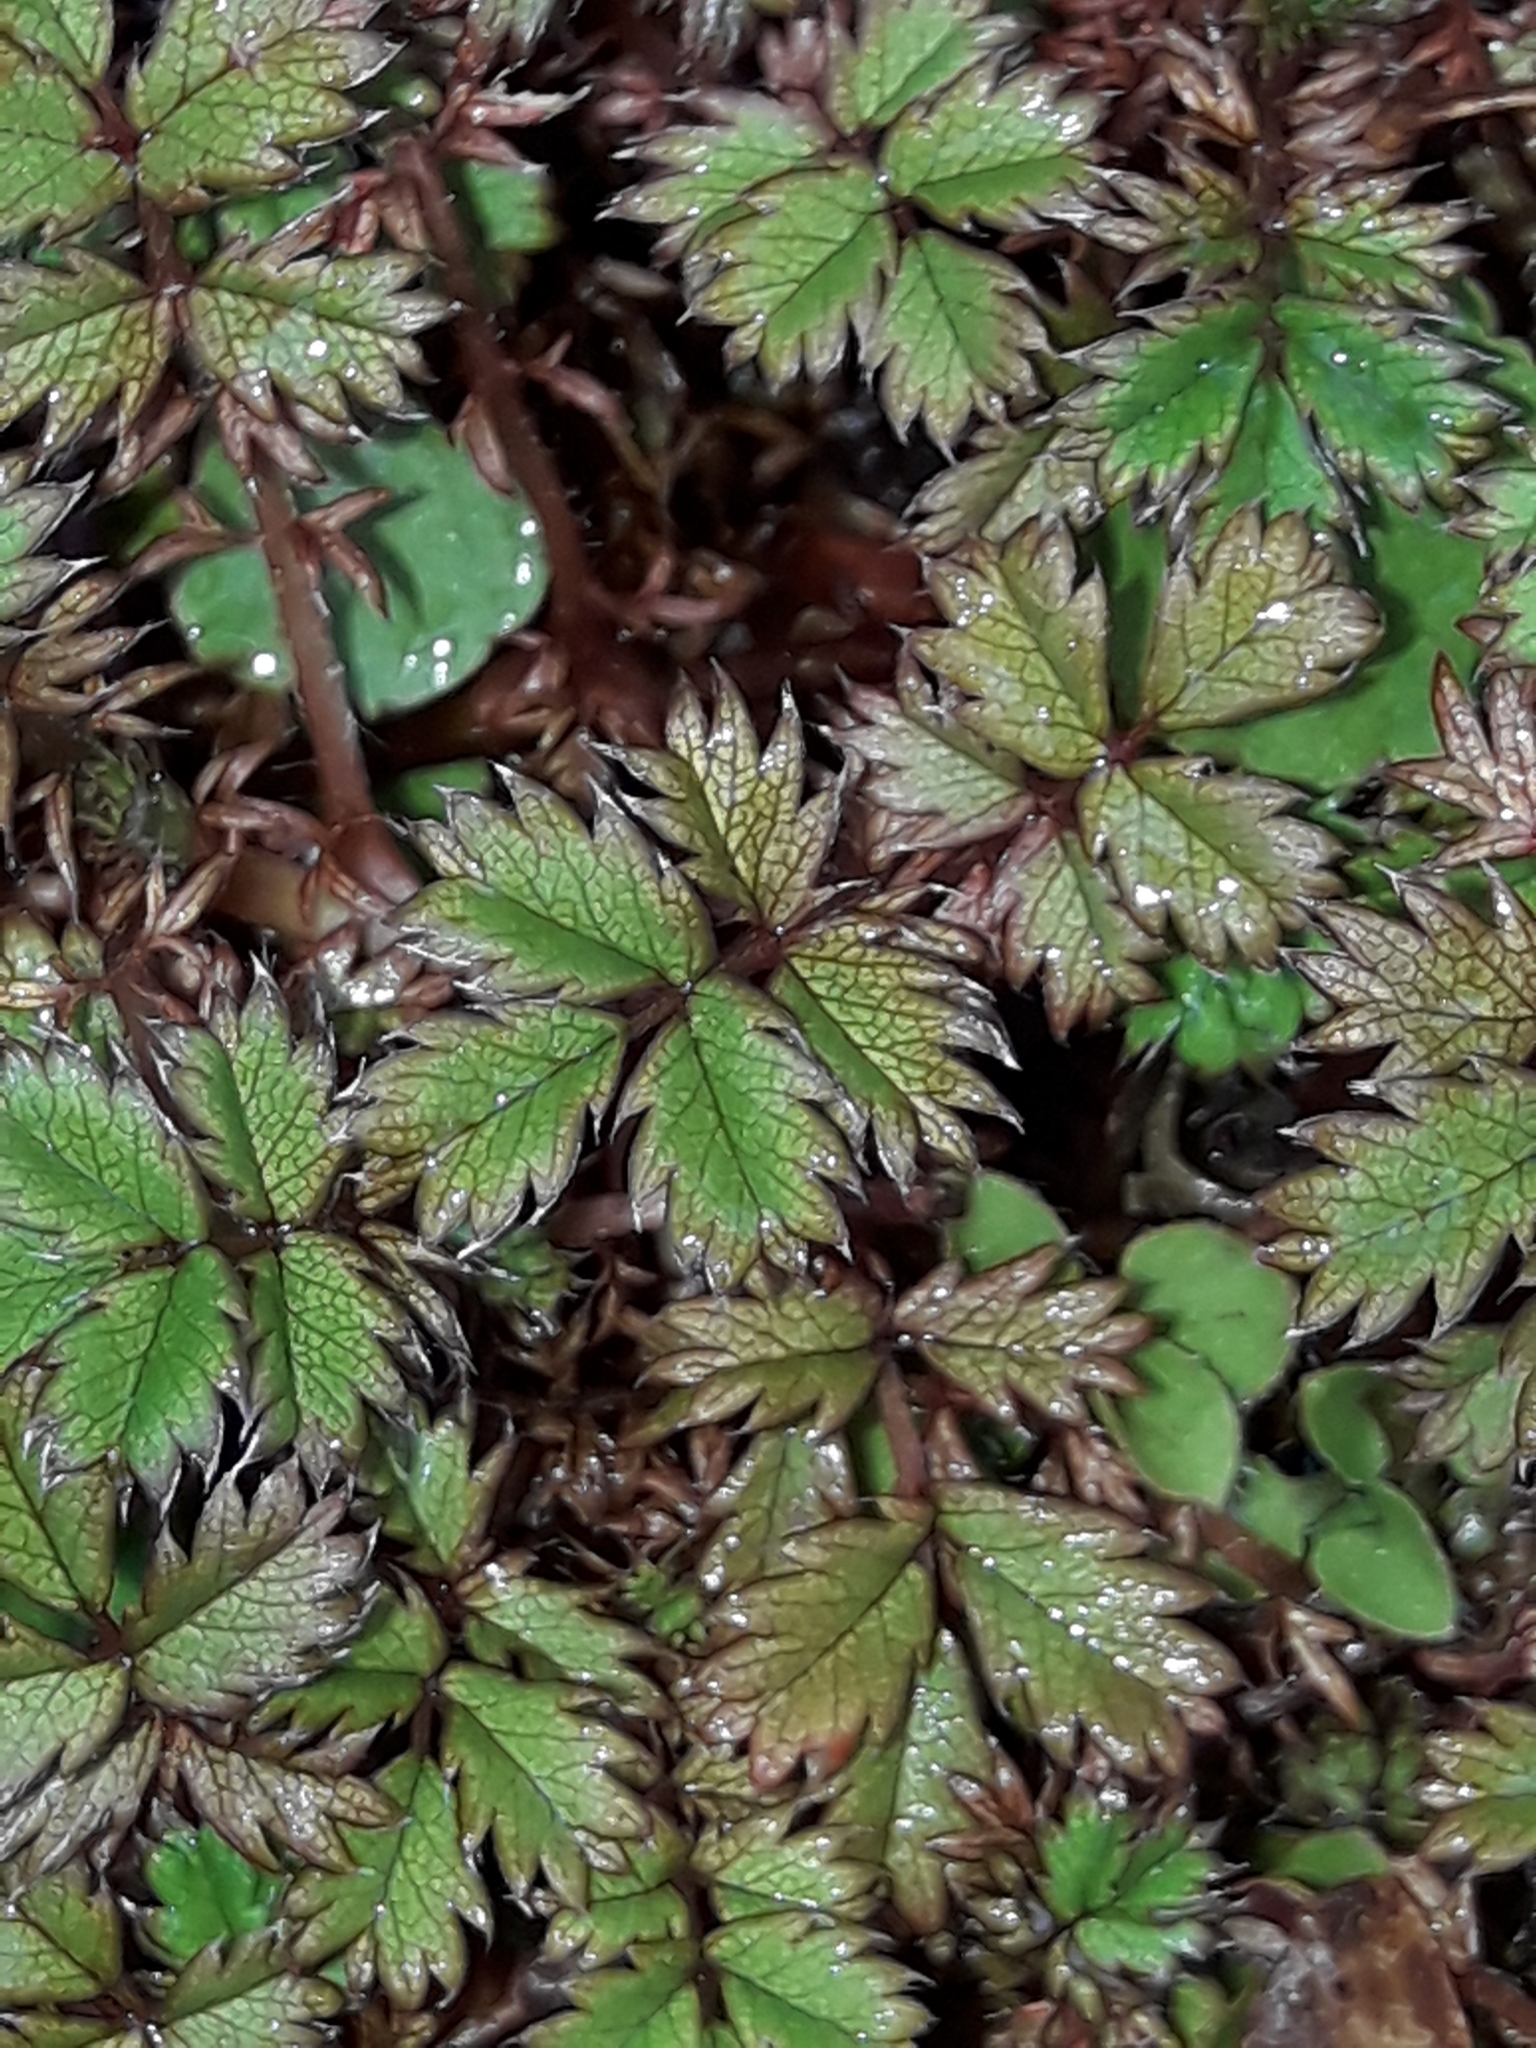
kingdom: Plantae
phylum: Tracheophyta
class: Magnoliopsida
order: Rosales
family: Rosaceae
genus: Acaena
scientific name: Acaena anserinifolia
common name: Bronze pirri-pirri-bur
